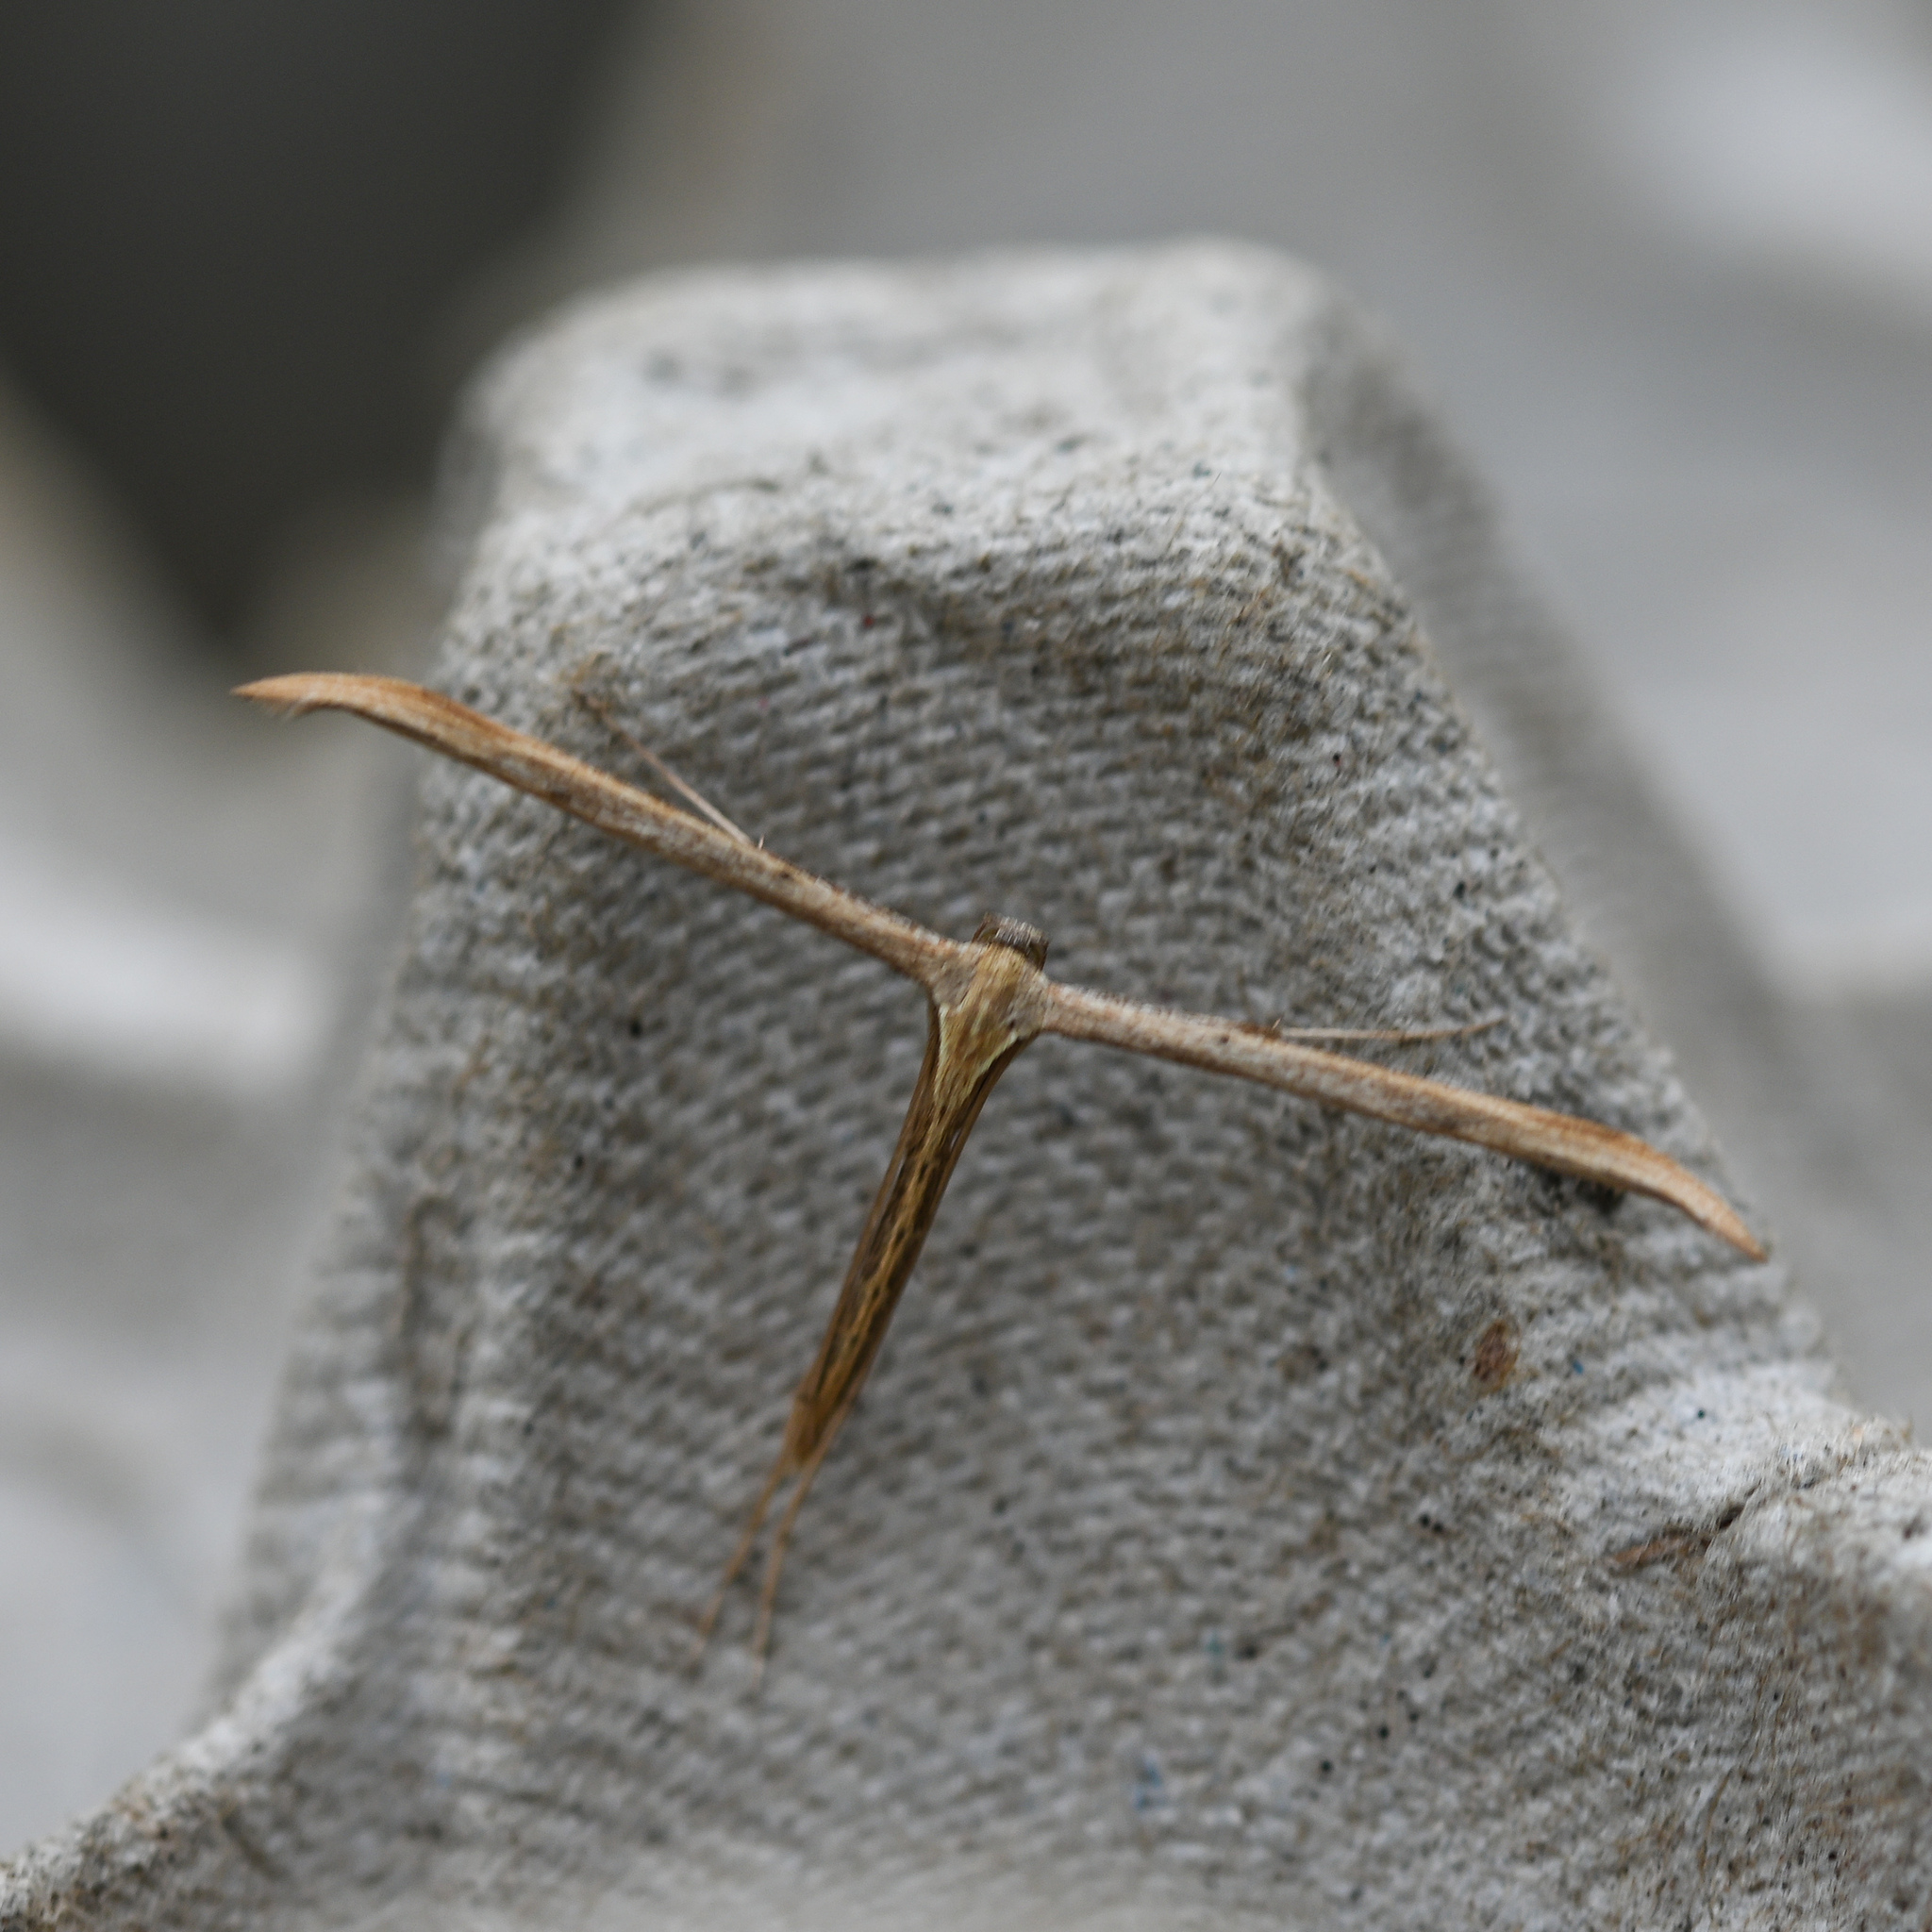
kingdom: Animalia
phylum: Arthropoda
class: Insecta
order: Lepidoptera
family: Pterophoridae
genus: Emmelina
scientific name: Emmelina monodactyla
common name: Common plume
